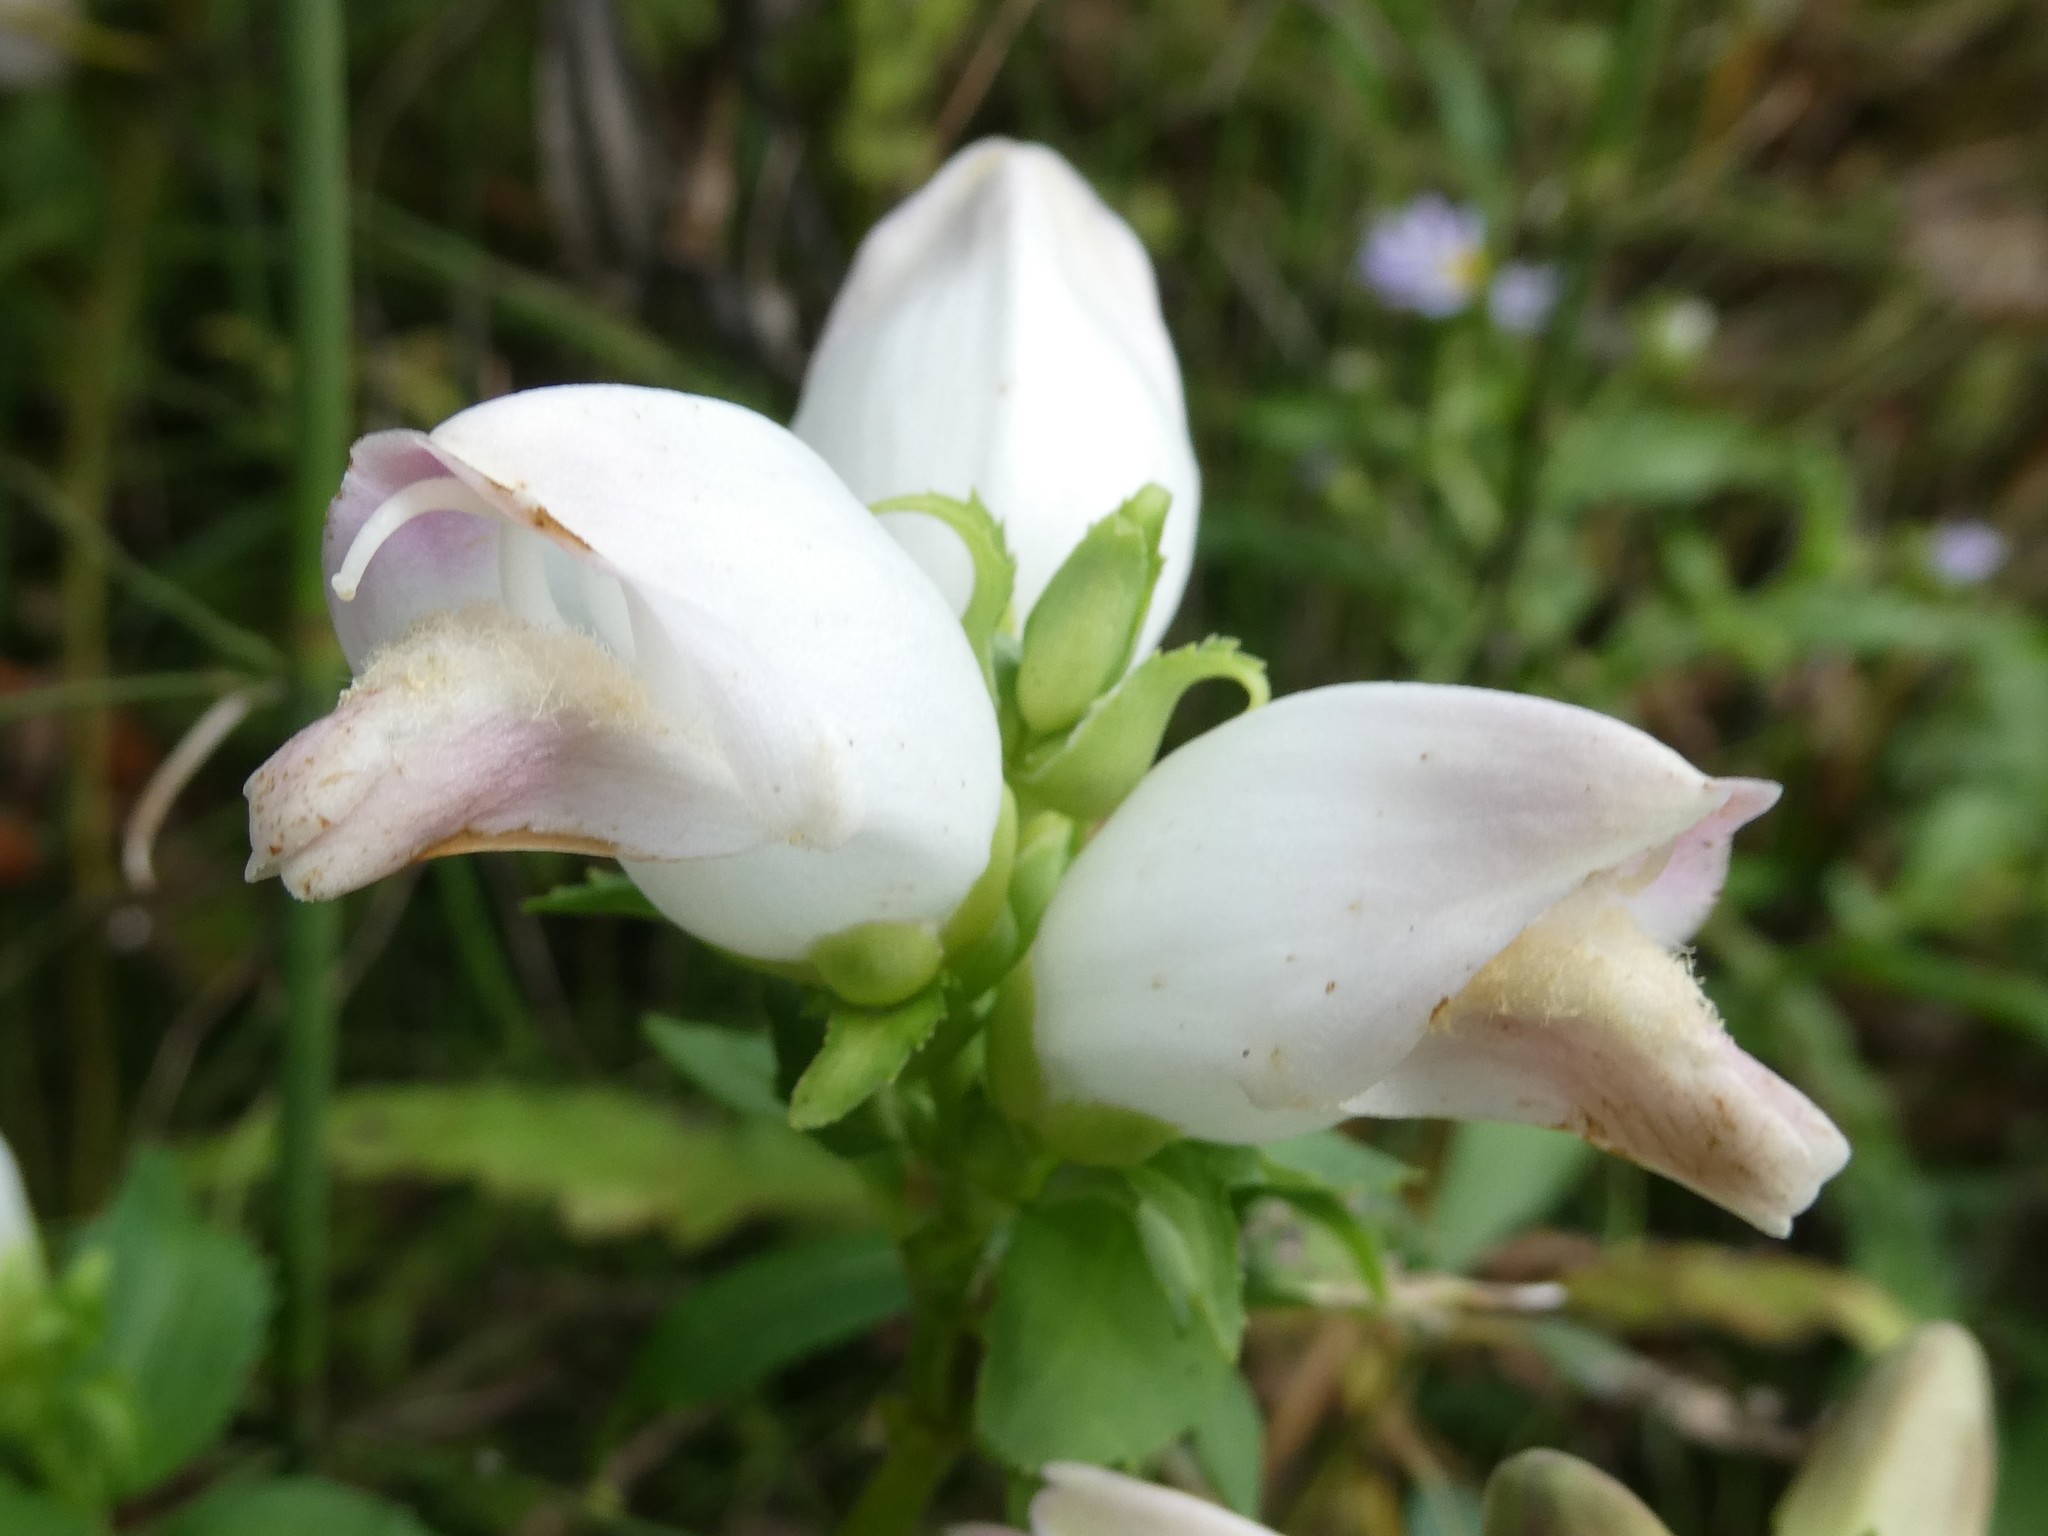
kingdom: Plantae
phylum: Tracheophyta
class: Magnoliopsida
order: Lamiales
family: Plantaginaceae
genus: Chelone
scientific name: Chelone glabra
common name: Snakehead
